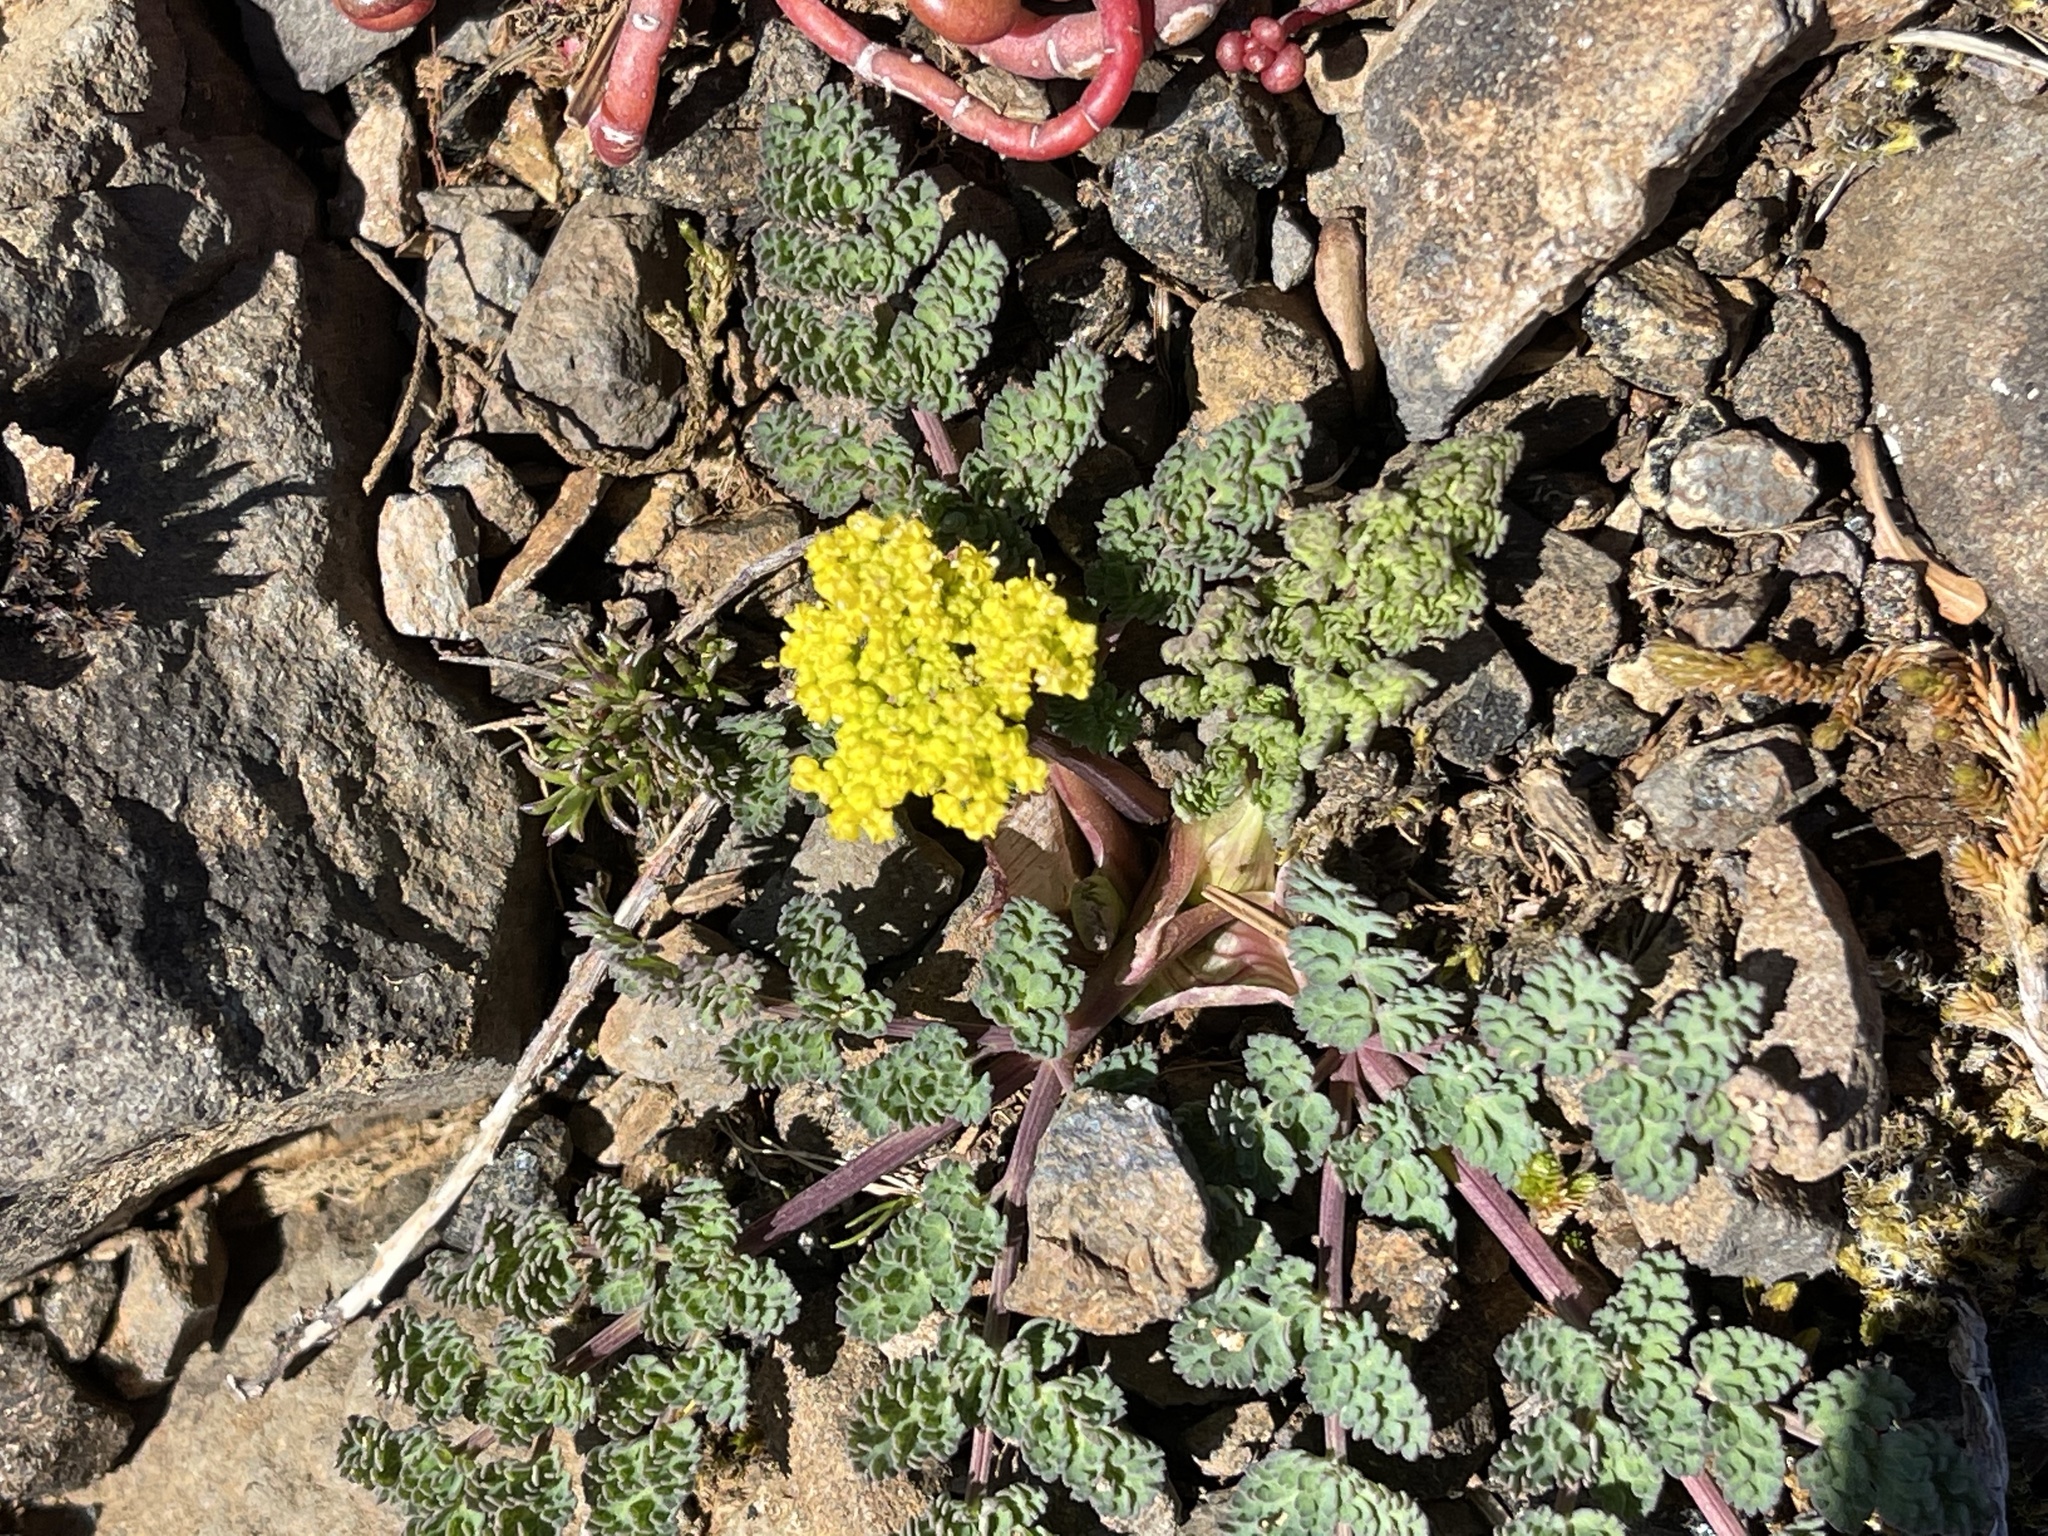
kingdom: Plantae
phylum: Tracheophyta
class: Magnoliopsida
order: Apiales
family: Apiaceae
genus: Lomatium
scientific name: Lomatium martindalei
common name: Cascade desert-parsley
